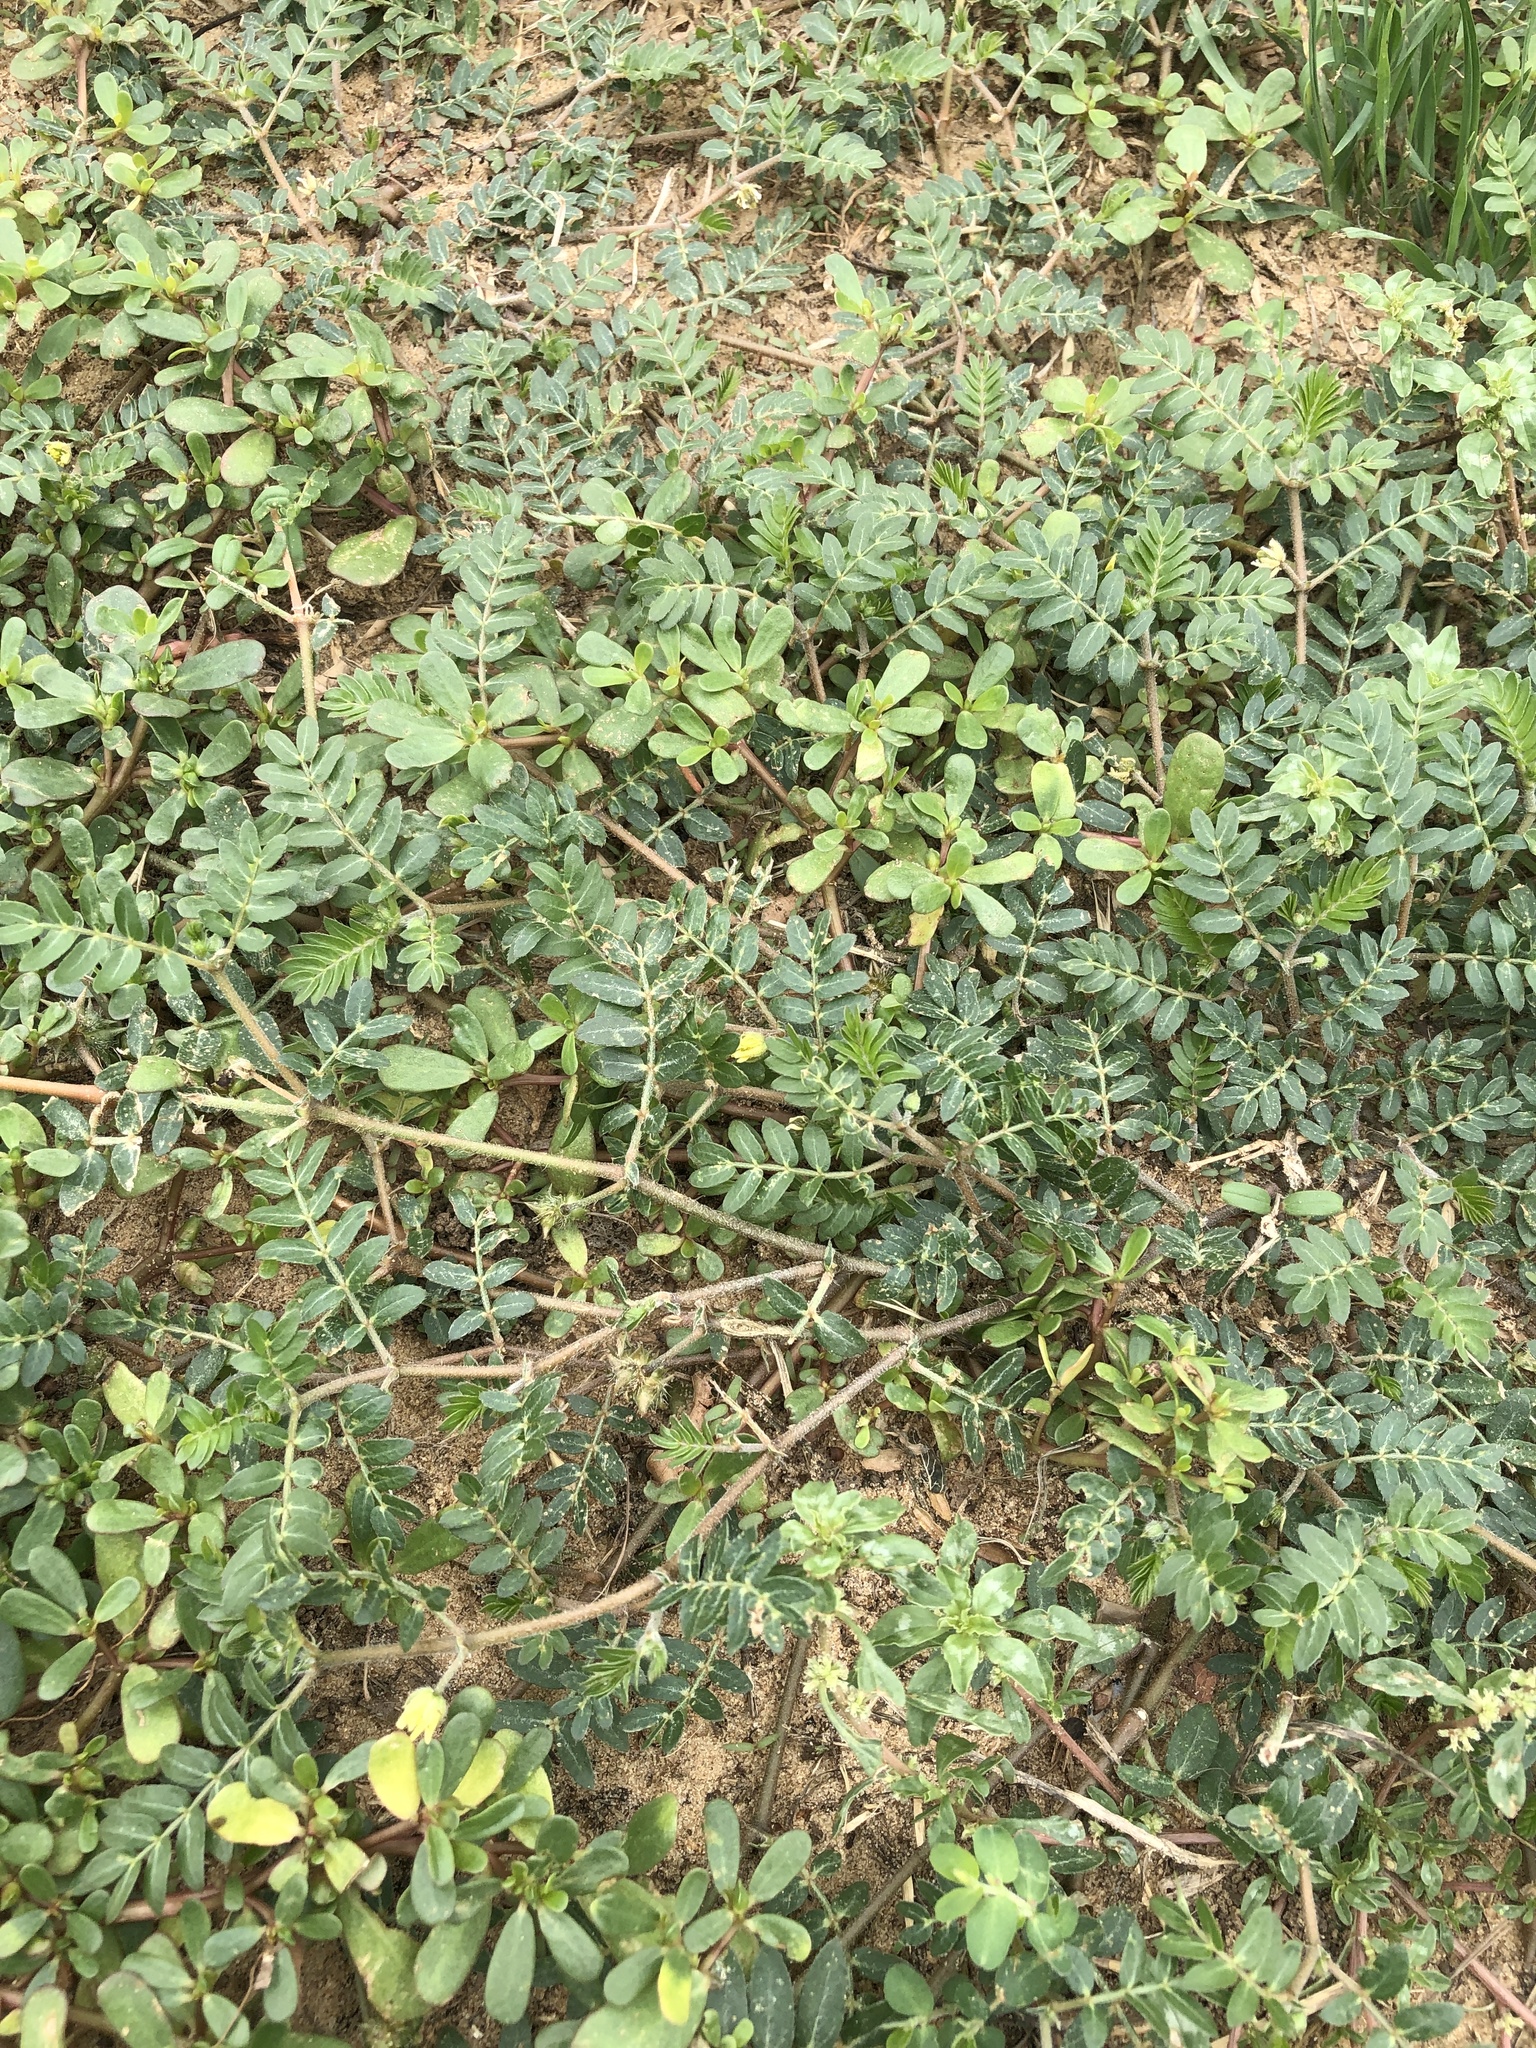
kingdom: Plantae
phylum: Tracheophyta
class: Magnoliopsida
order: Zygophyllales
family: Zygophyllaceae
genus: Tribulus
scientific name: Tribulus terrestris
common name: Puncturevine
